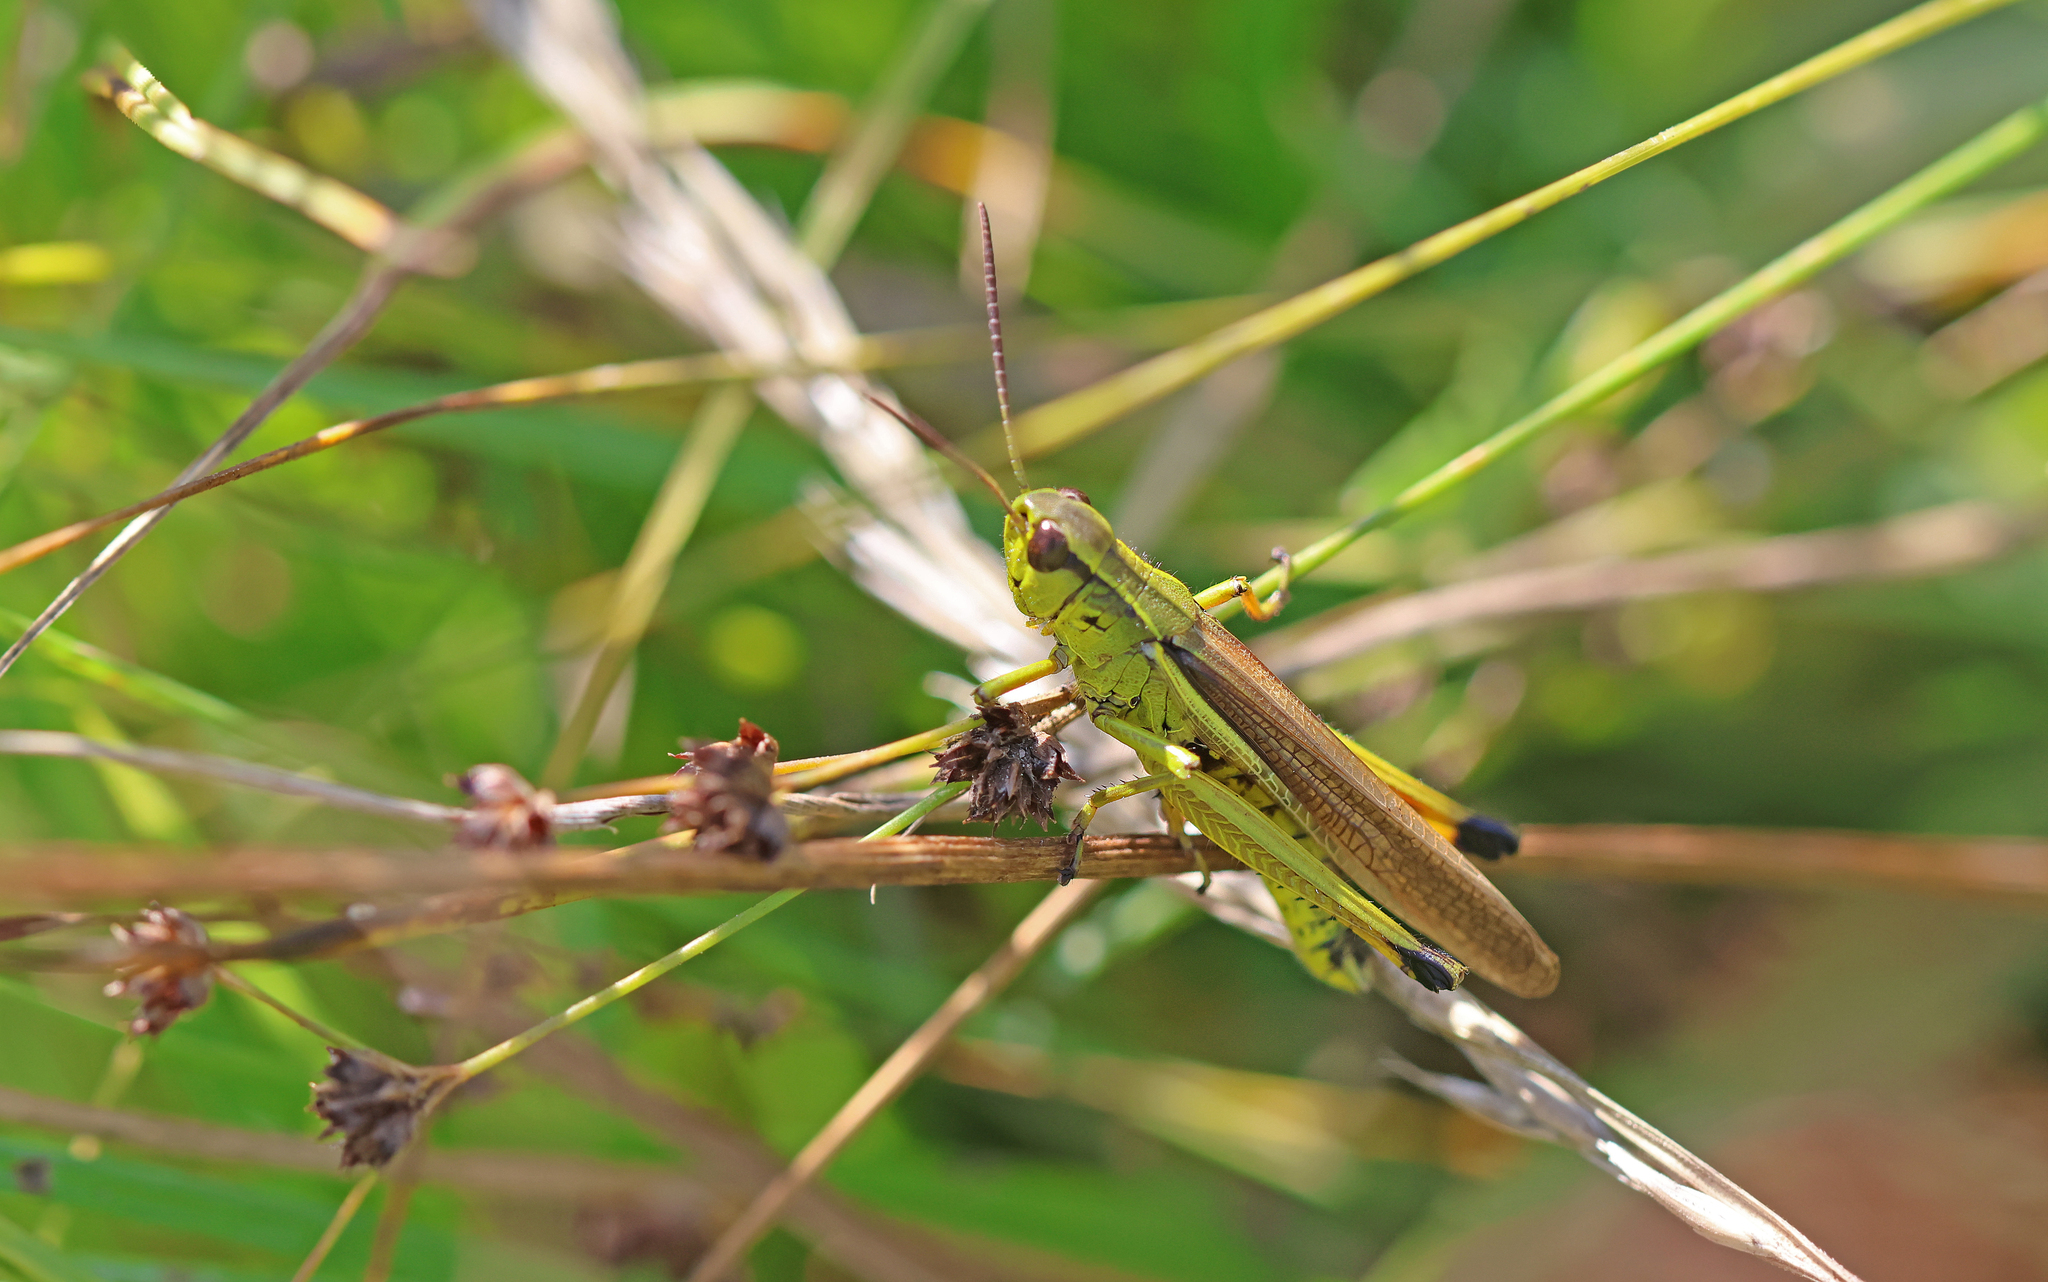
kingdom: Animalia
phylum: Arthropoda
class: Insecta
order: Orthoptera
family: Acrididae
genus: Stethophyma
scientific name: Stethophyma grossum
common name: Large marsh grasshopper
